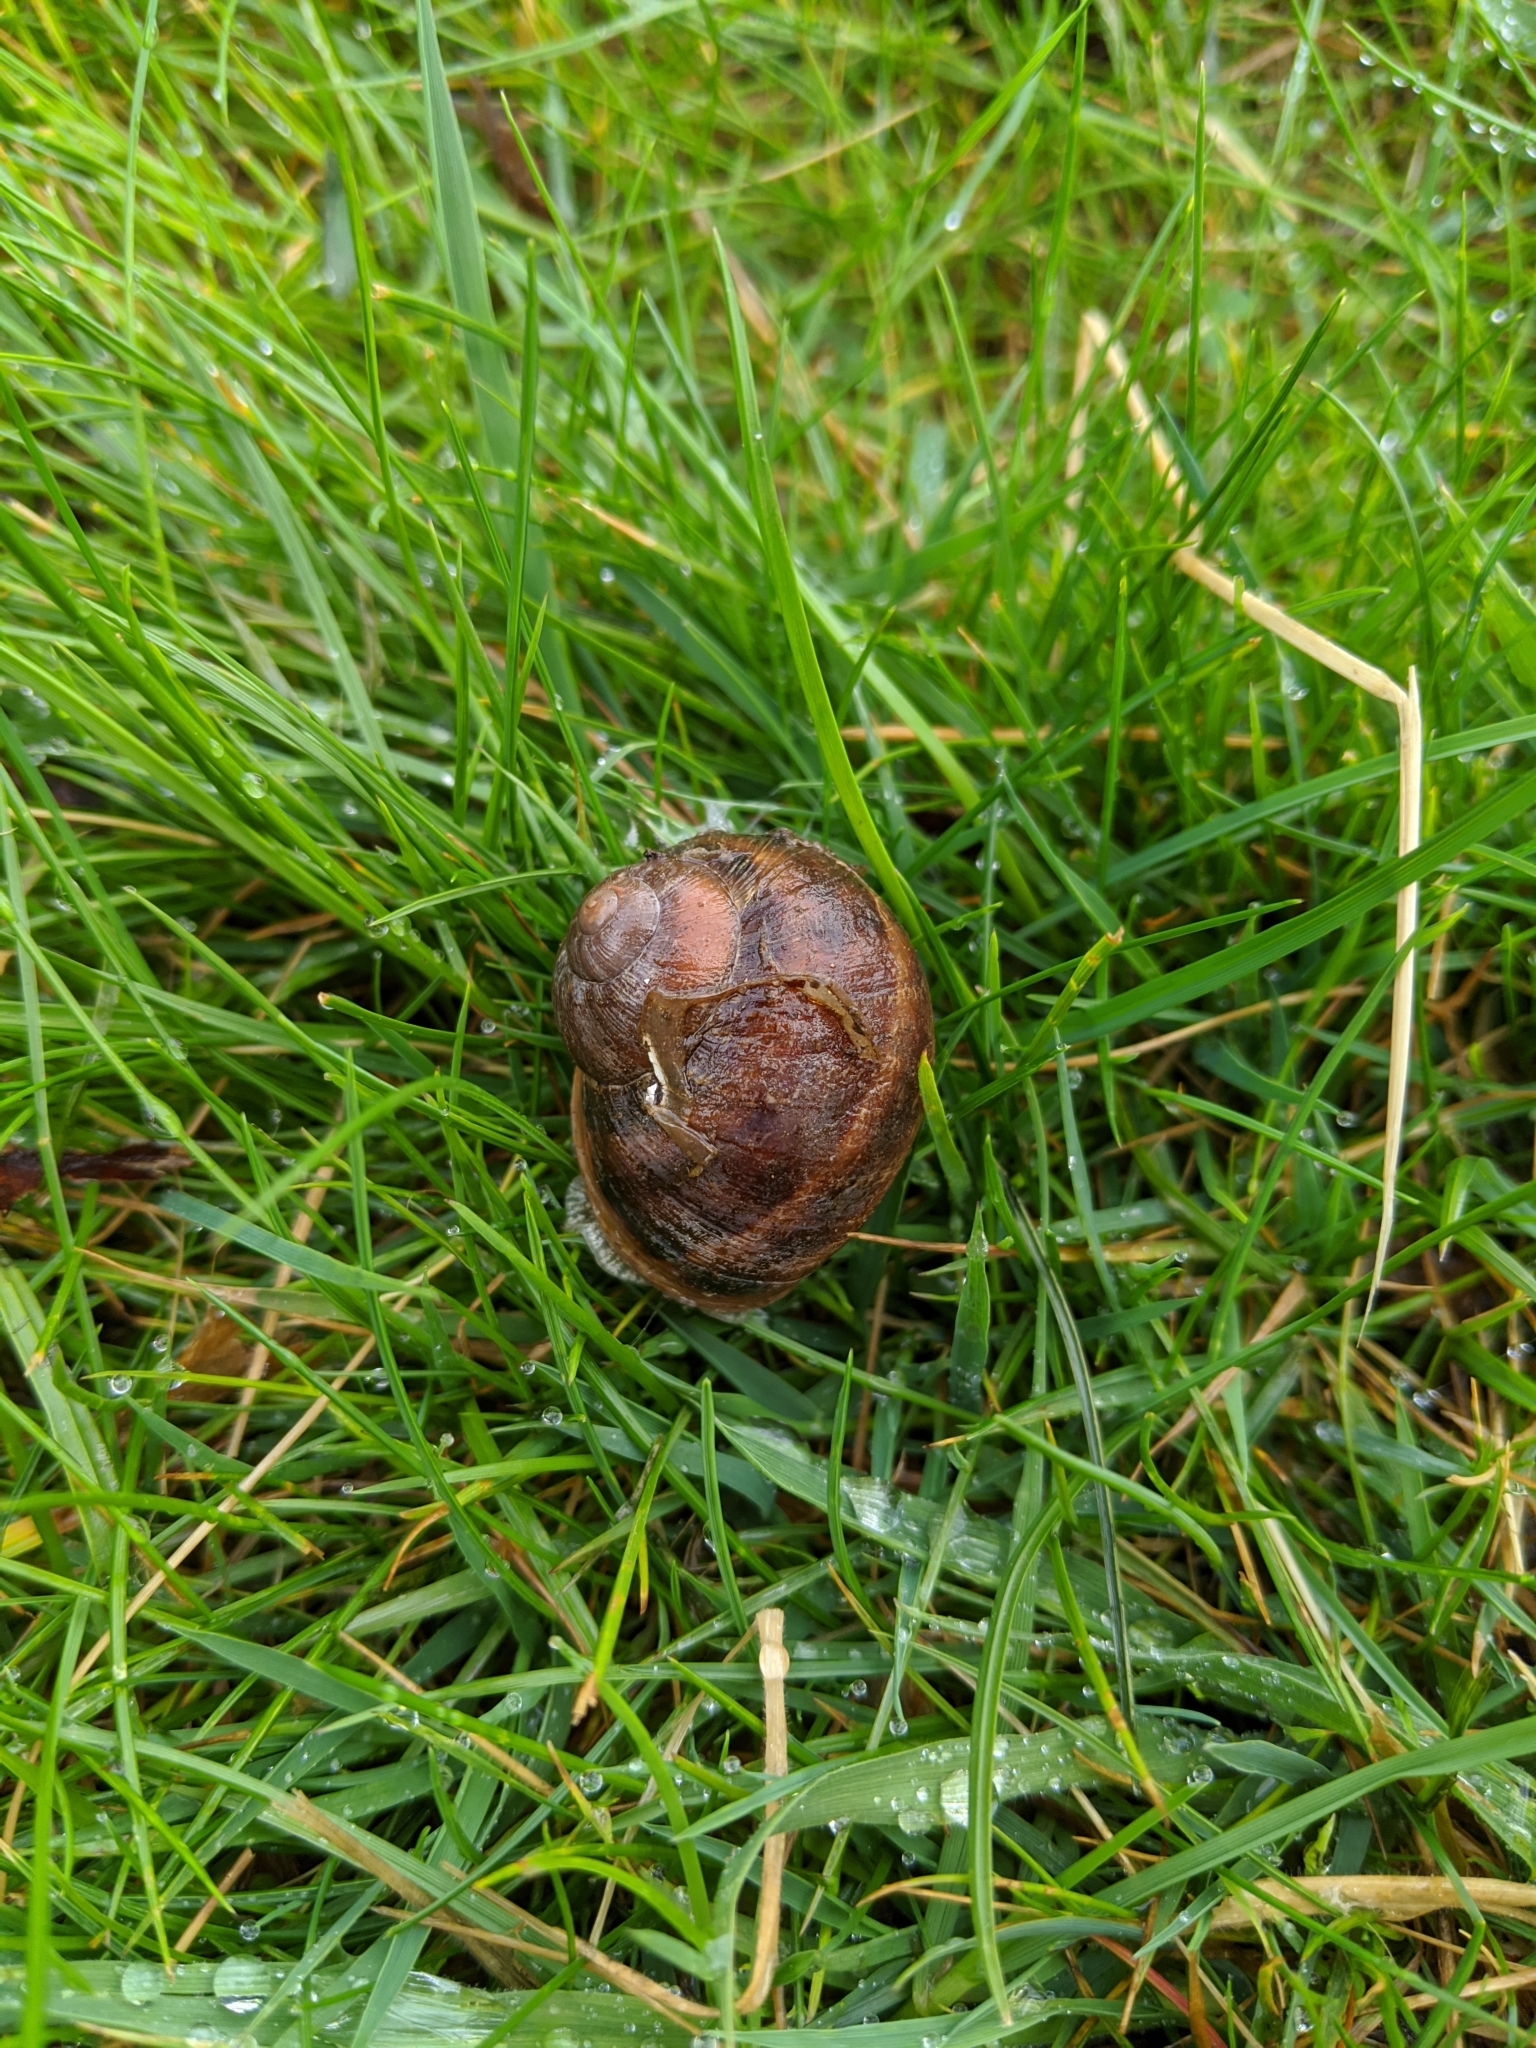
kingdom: Animalia
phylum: Mollusca
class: Gastropoda
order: Stylommatophora
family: Helicidae
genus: Cornu
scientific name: Cornu aspersum
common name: Brown garden snail
